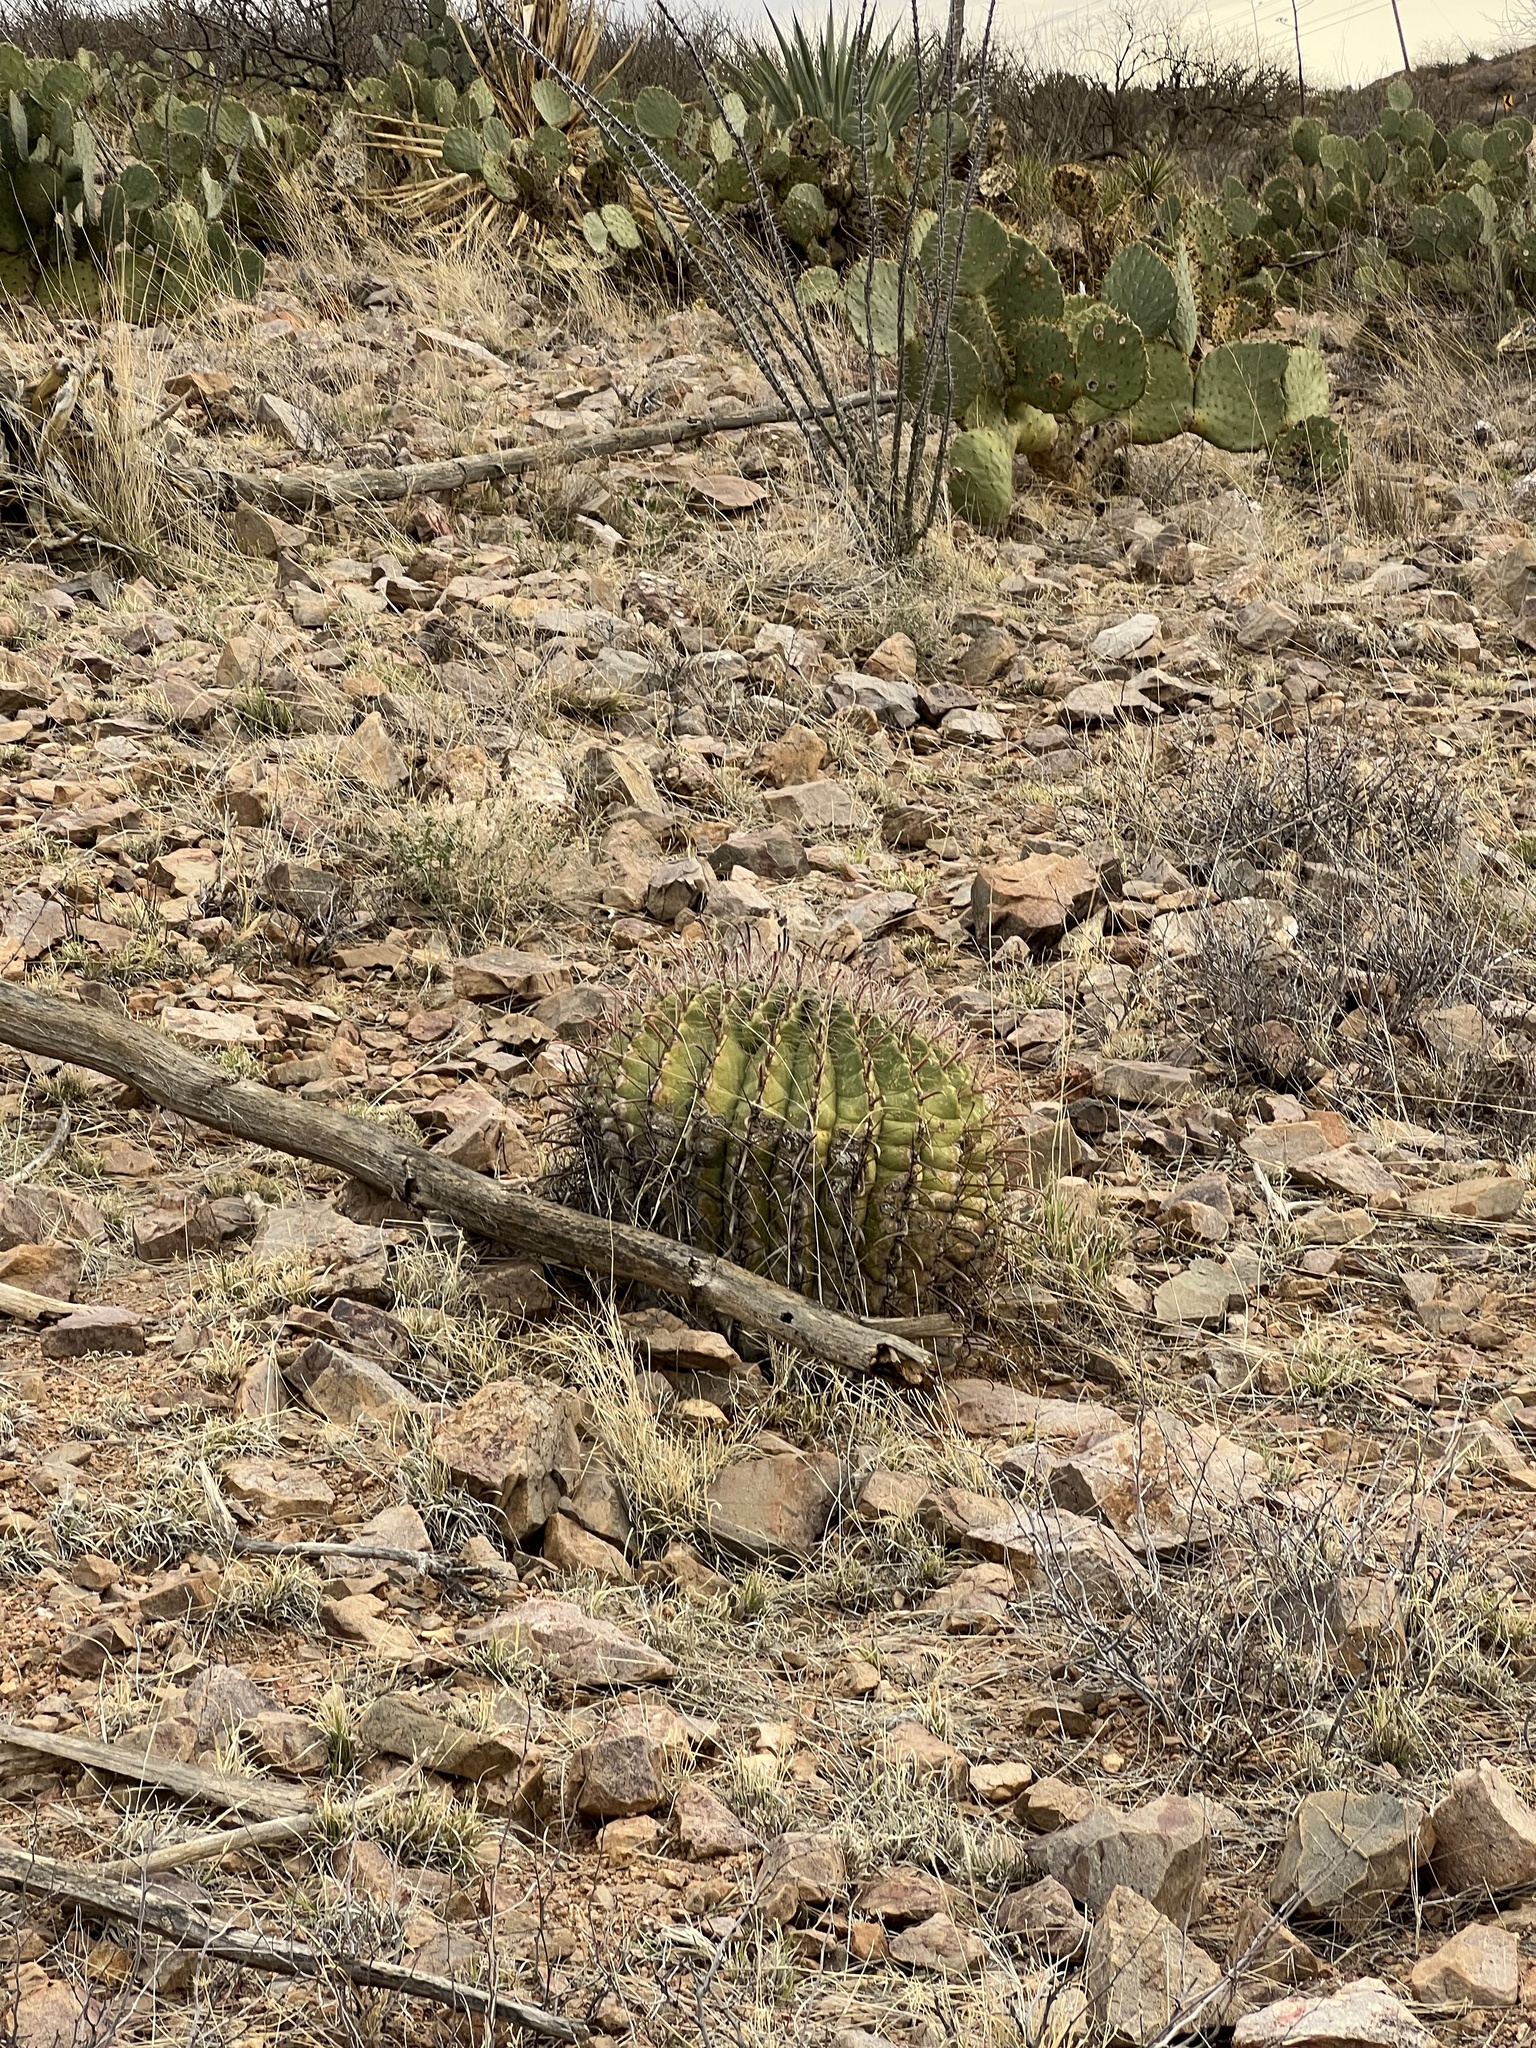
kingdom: Plantae
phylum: Tracheophyta
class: Magnoliopsida
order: Caryophyllales
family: Cactaceae
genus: Ferocactus
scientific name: Ferocactus wislizeni
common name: Candy barrel cactus
